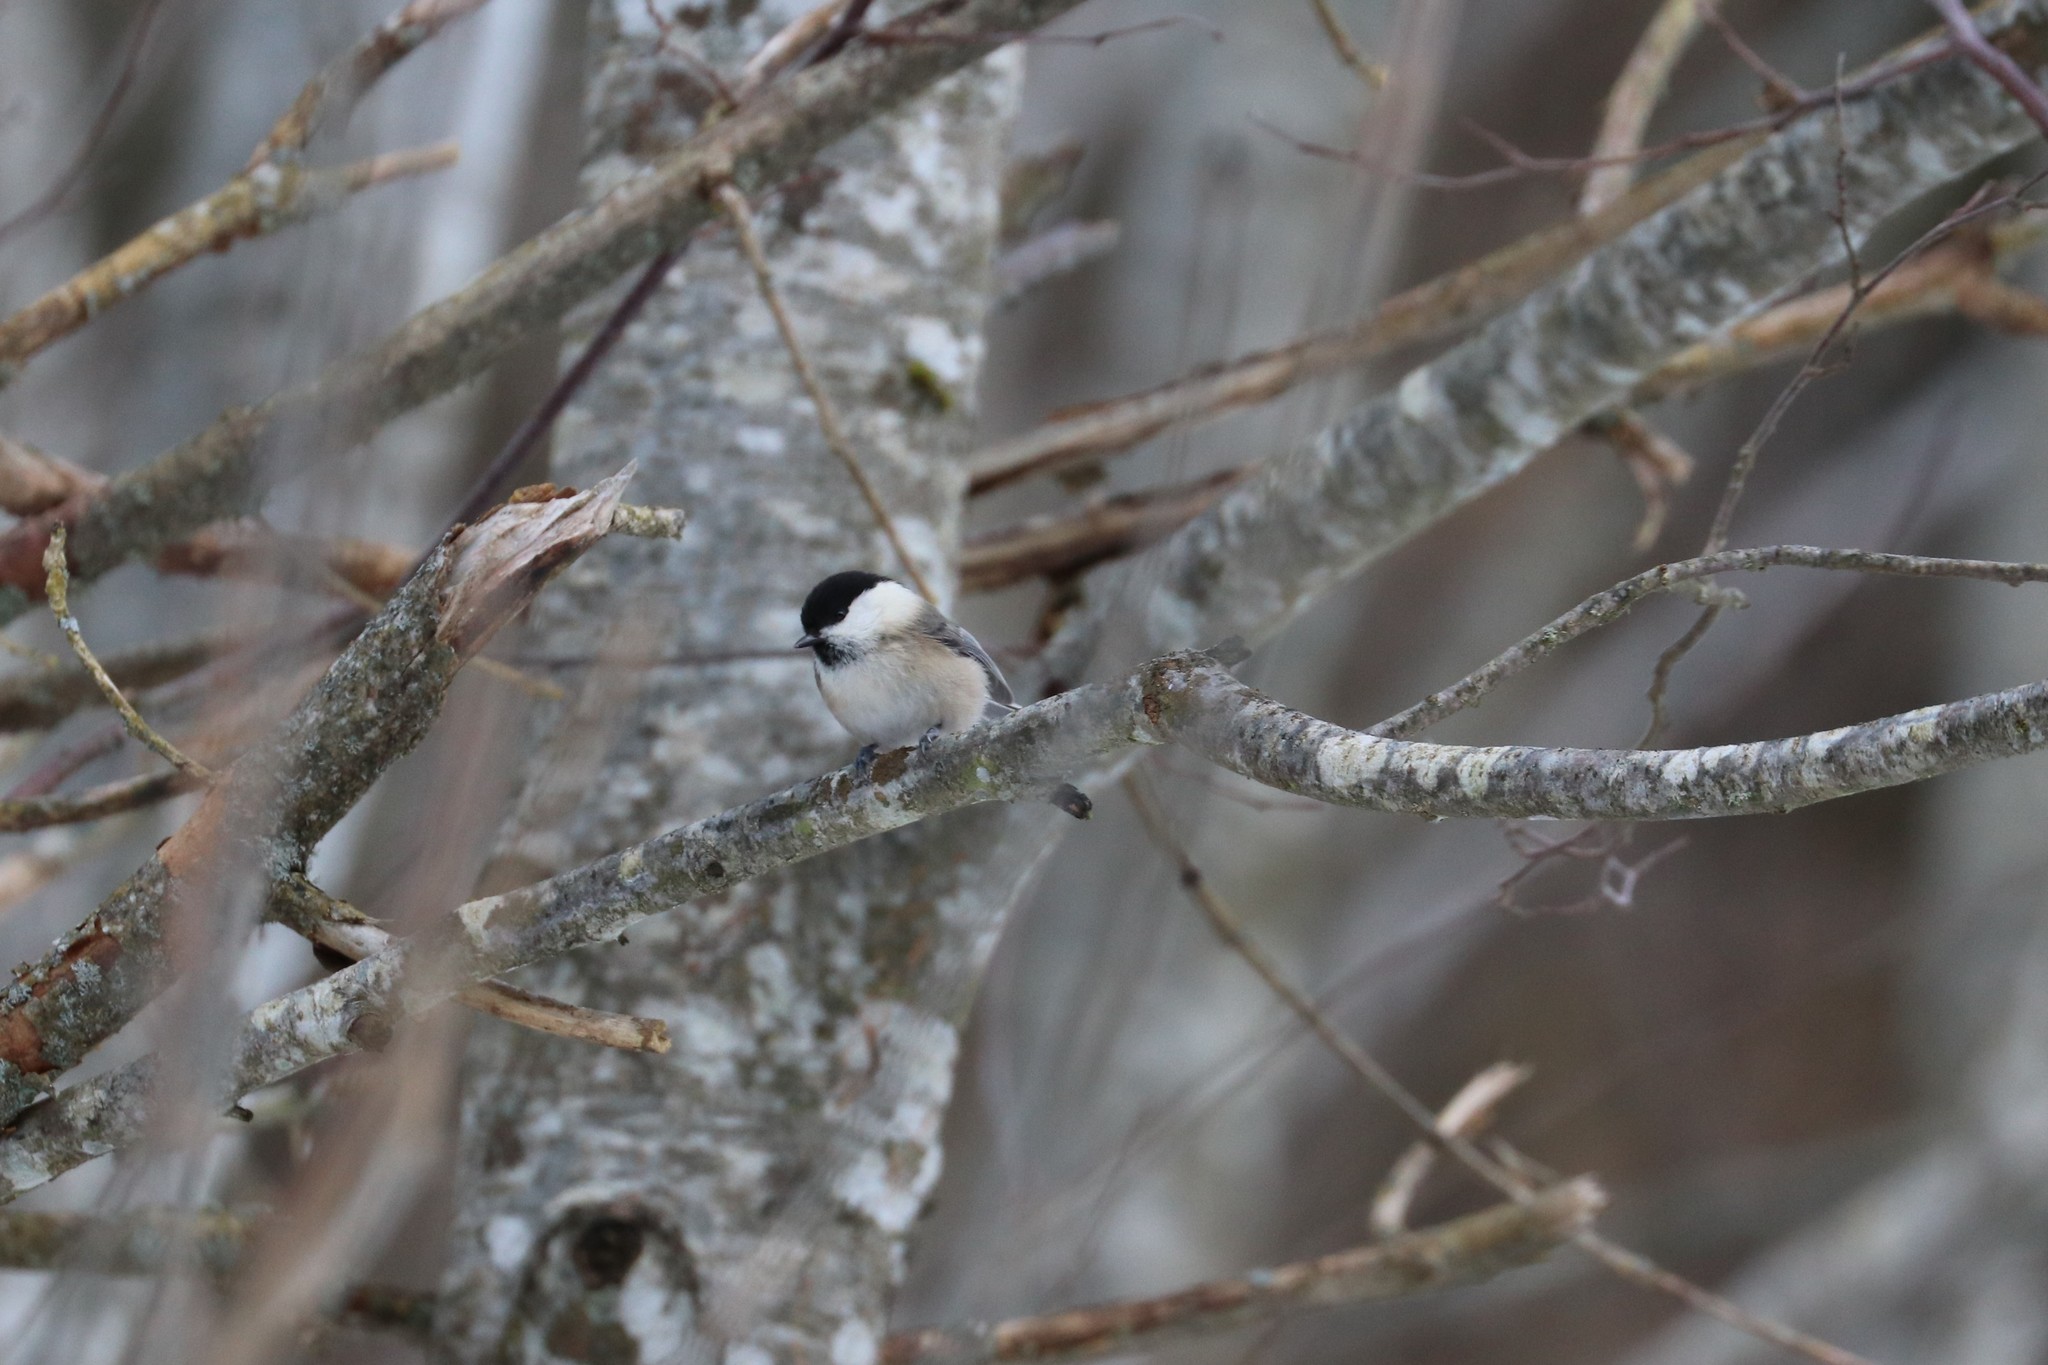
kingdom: Animalia
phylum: Chordata
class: Aves
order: Passeriformes
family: Paridae
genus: Poecile
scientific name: Poecile montanus
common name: Willow tit
